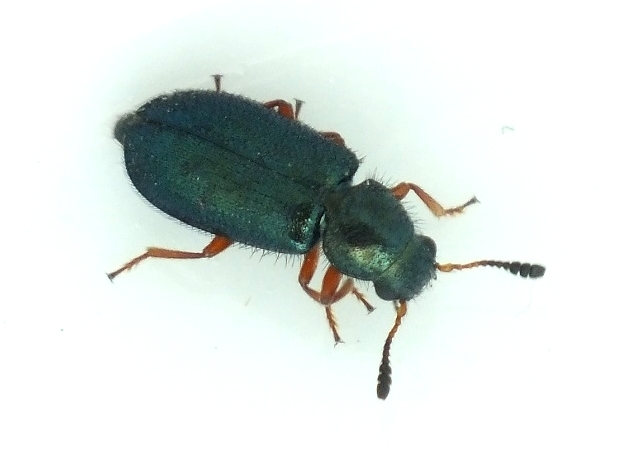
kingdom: Animalia
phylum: Arthropoda
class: Insecta
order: Coleoptera
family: Cleridae
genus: Necrobia
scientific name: Necrobia rufipes
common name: Red-legged ham beetle
